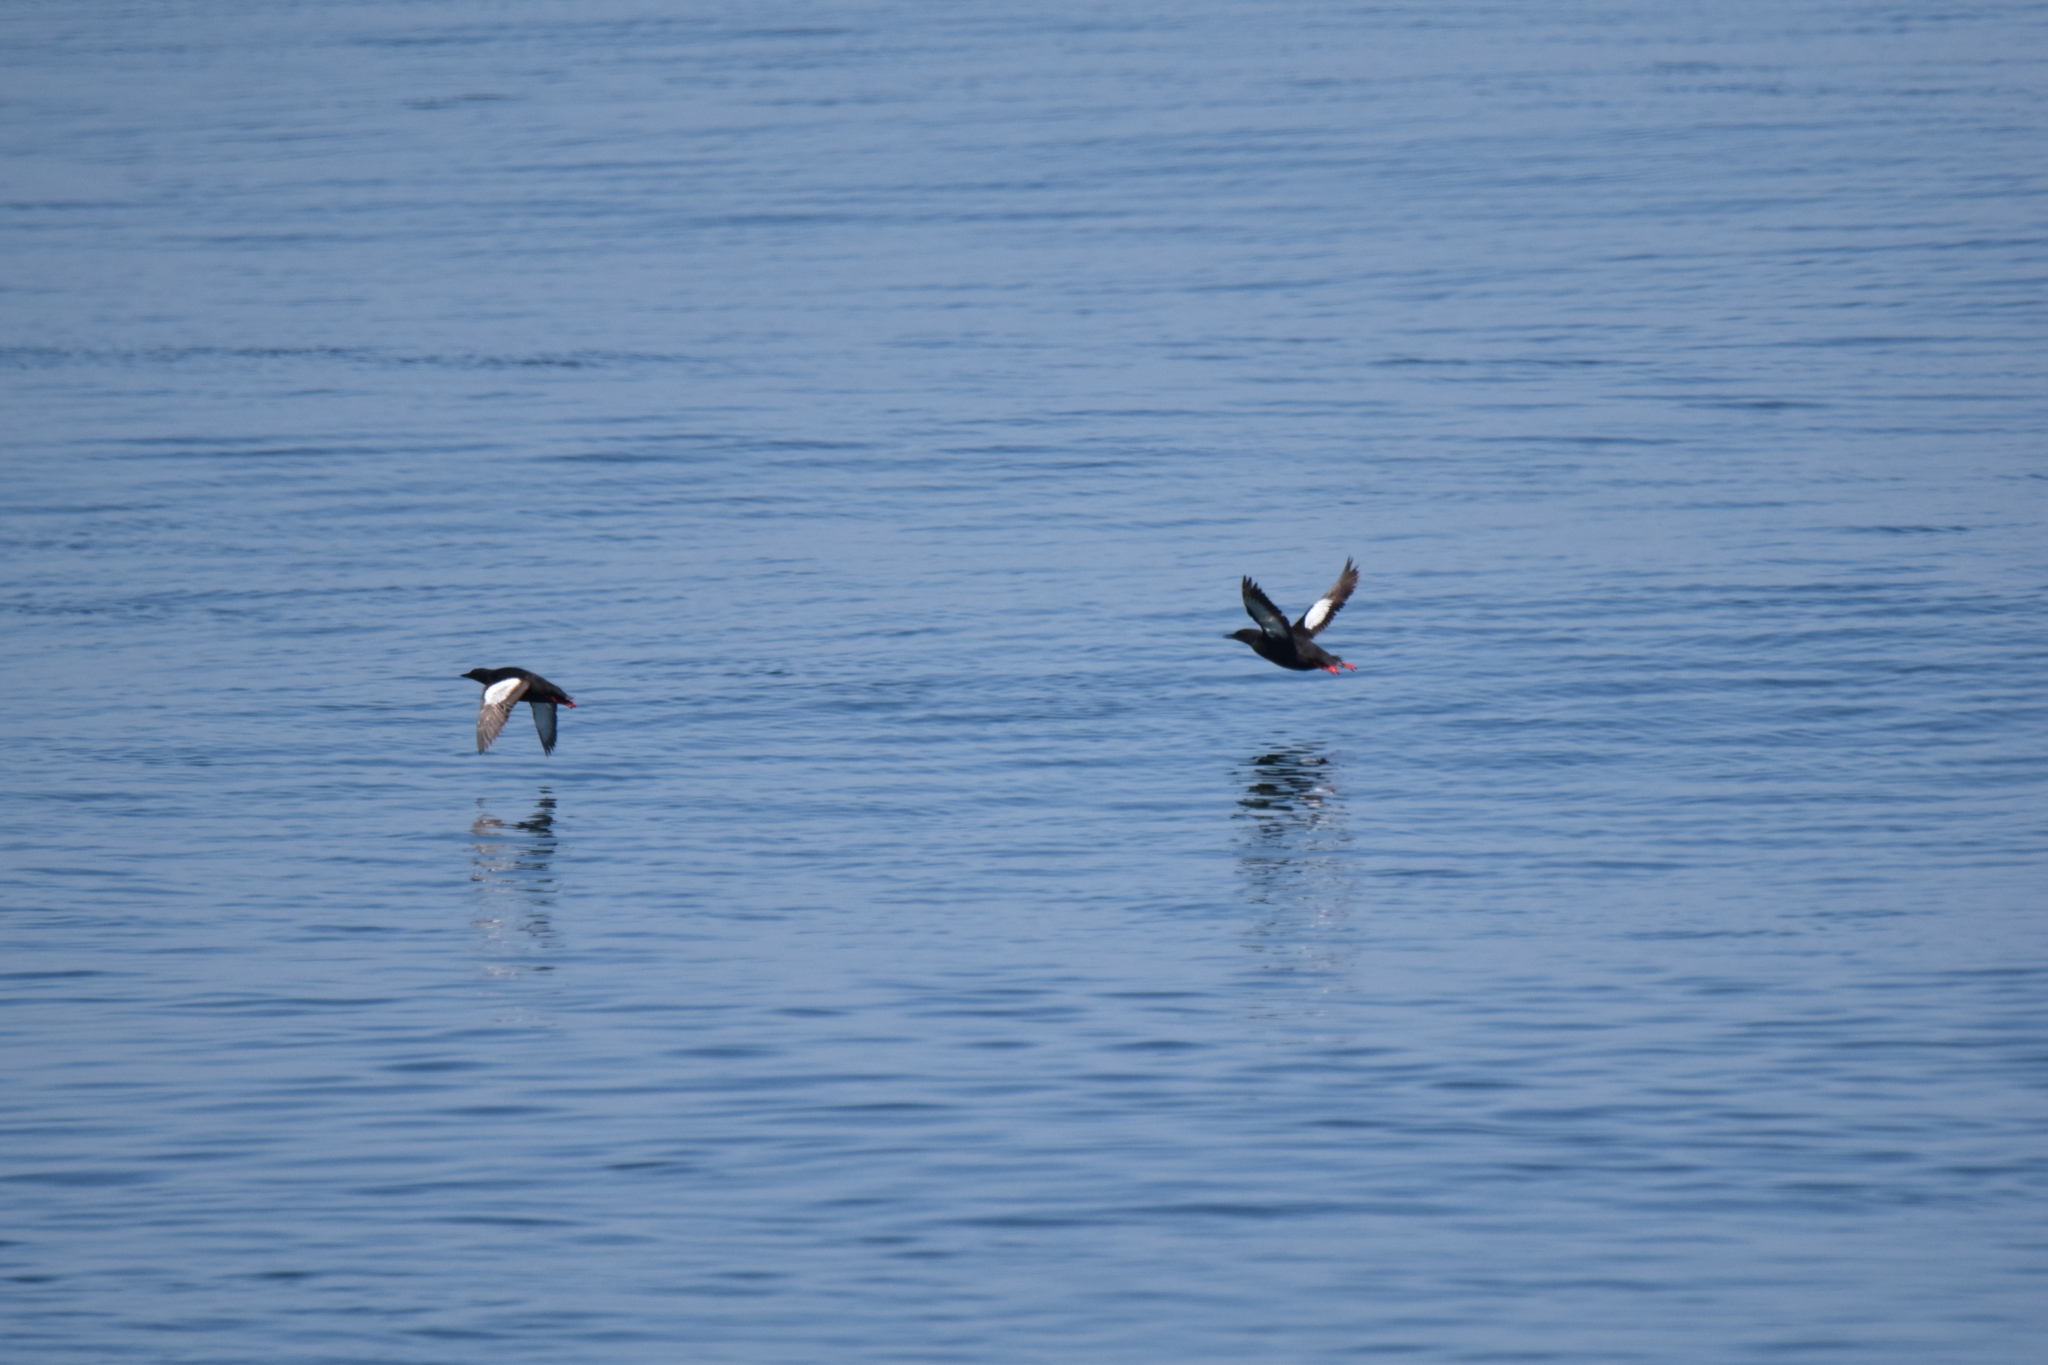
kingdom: Animalia
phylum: Chordata
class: Aves
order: Charadriiformes
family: Alcidae
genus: Cepphus
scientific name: Cepphus grylle
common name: Black guillemot
